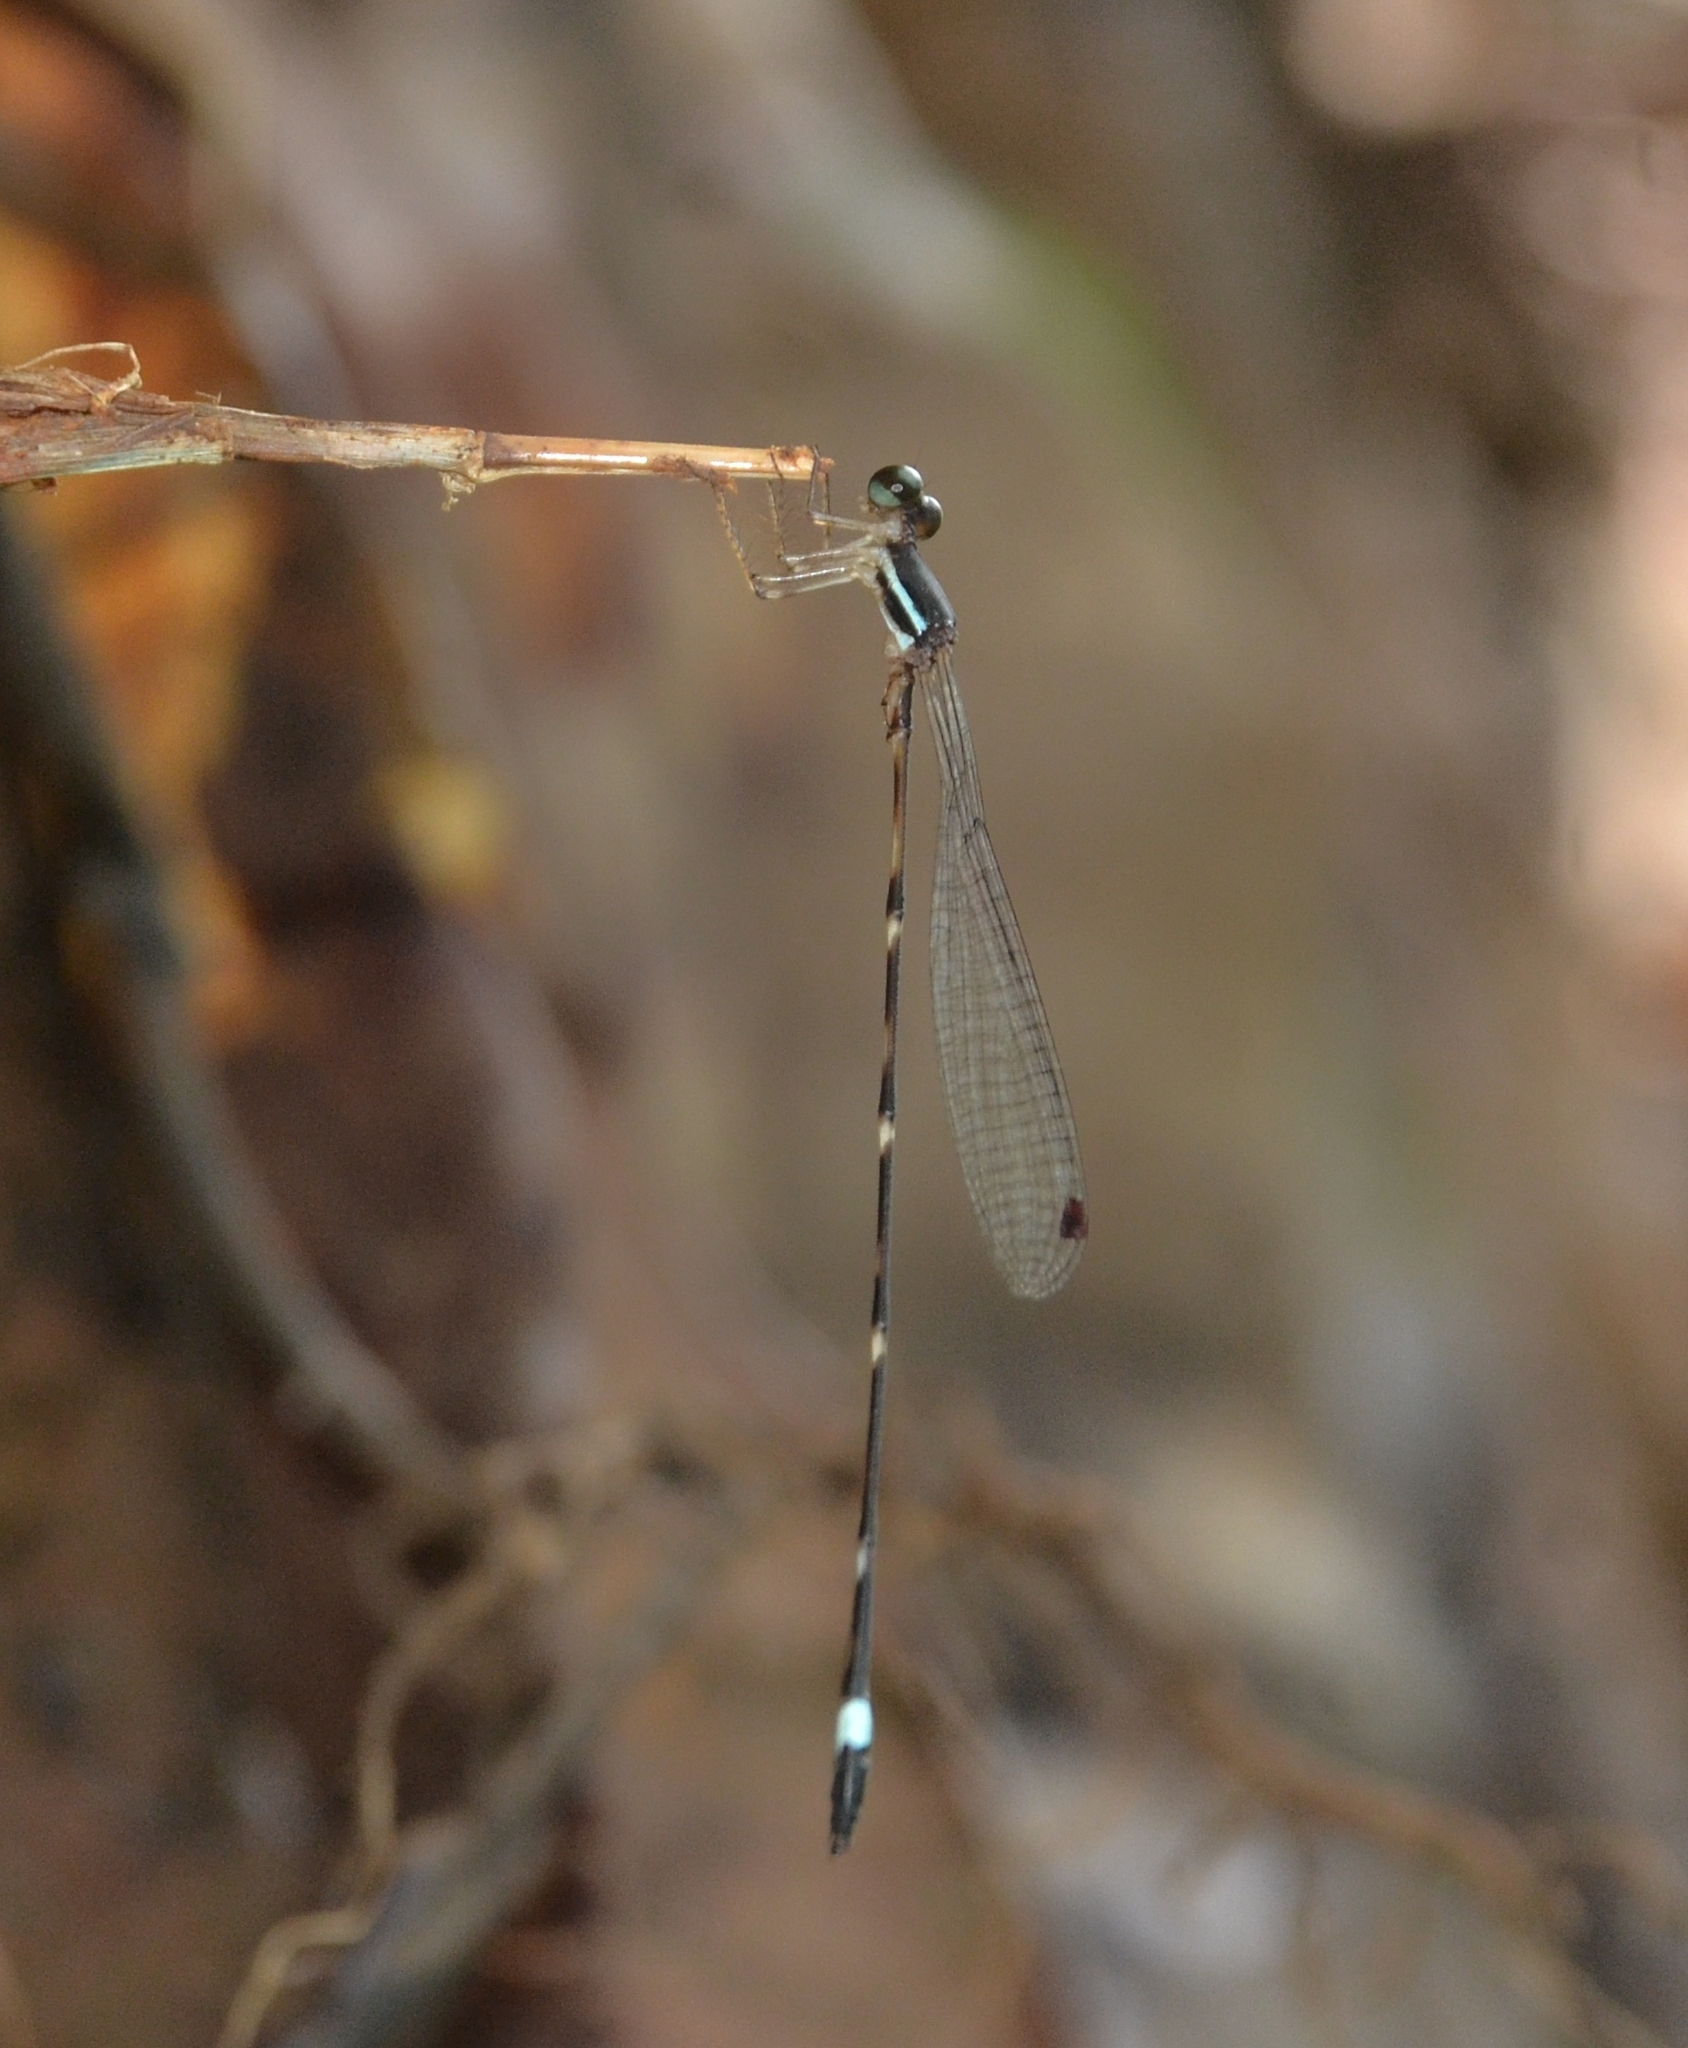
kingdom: Animalia
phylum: Arthropoda
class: Insecta
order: Odonata
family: Platystictidae
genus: Protosticta
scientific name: Protosticta sanguinostigma
